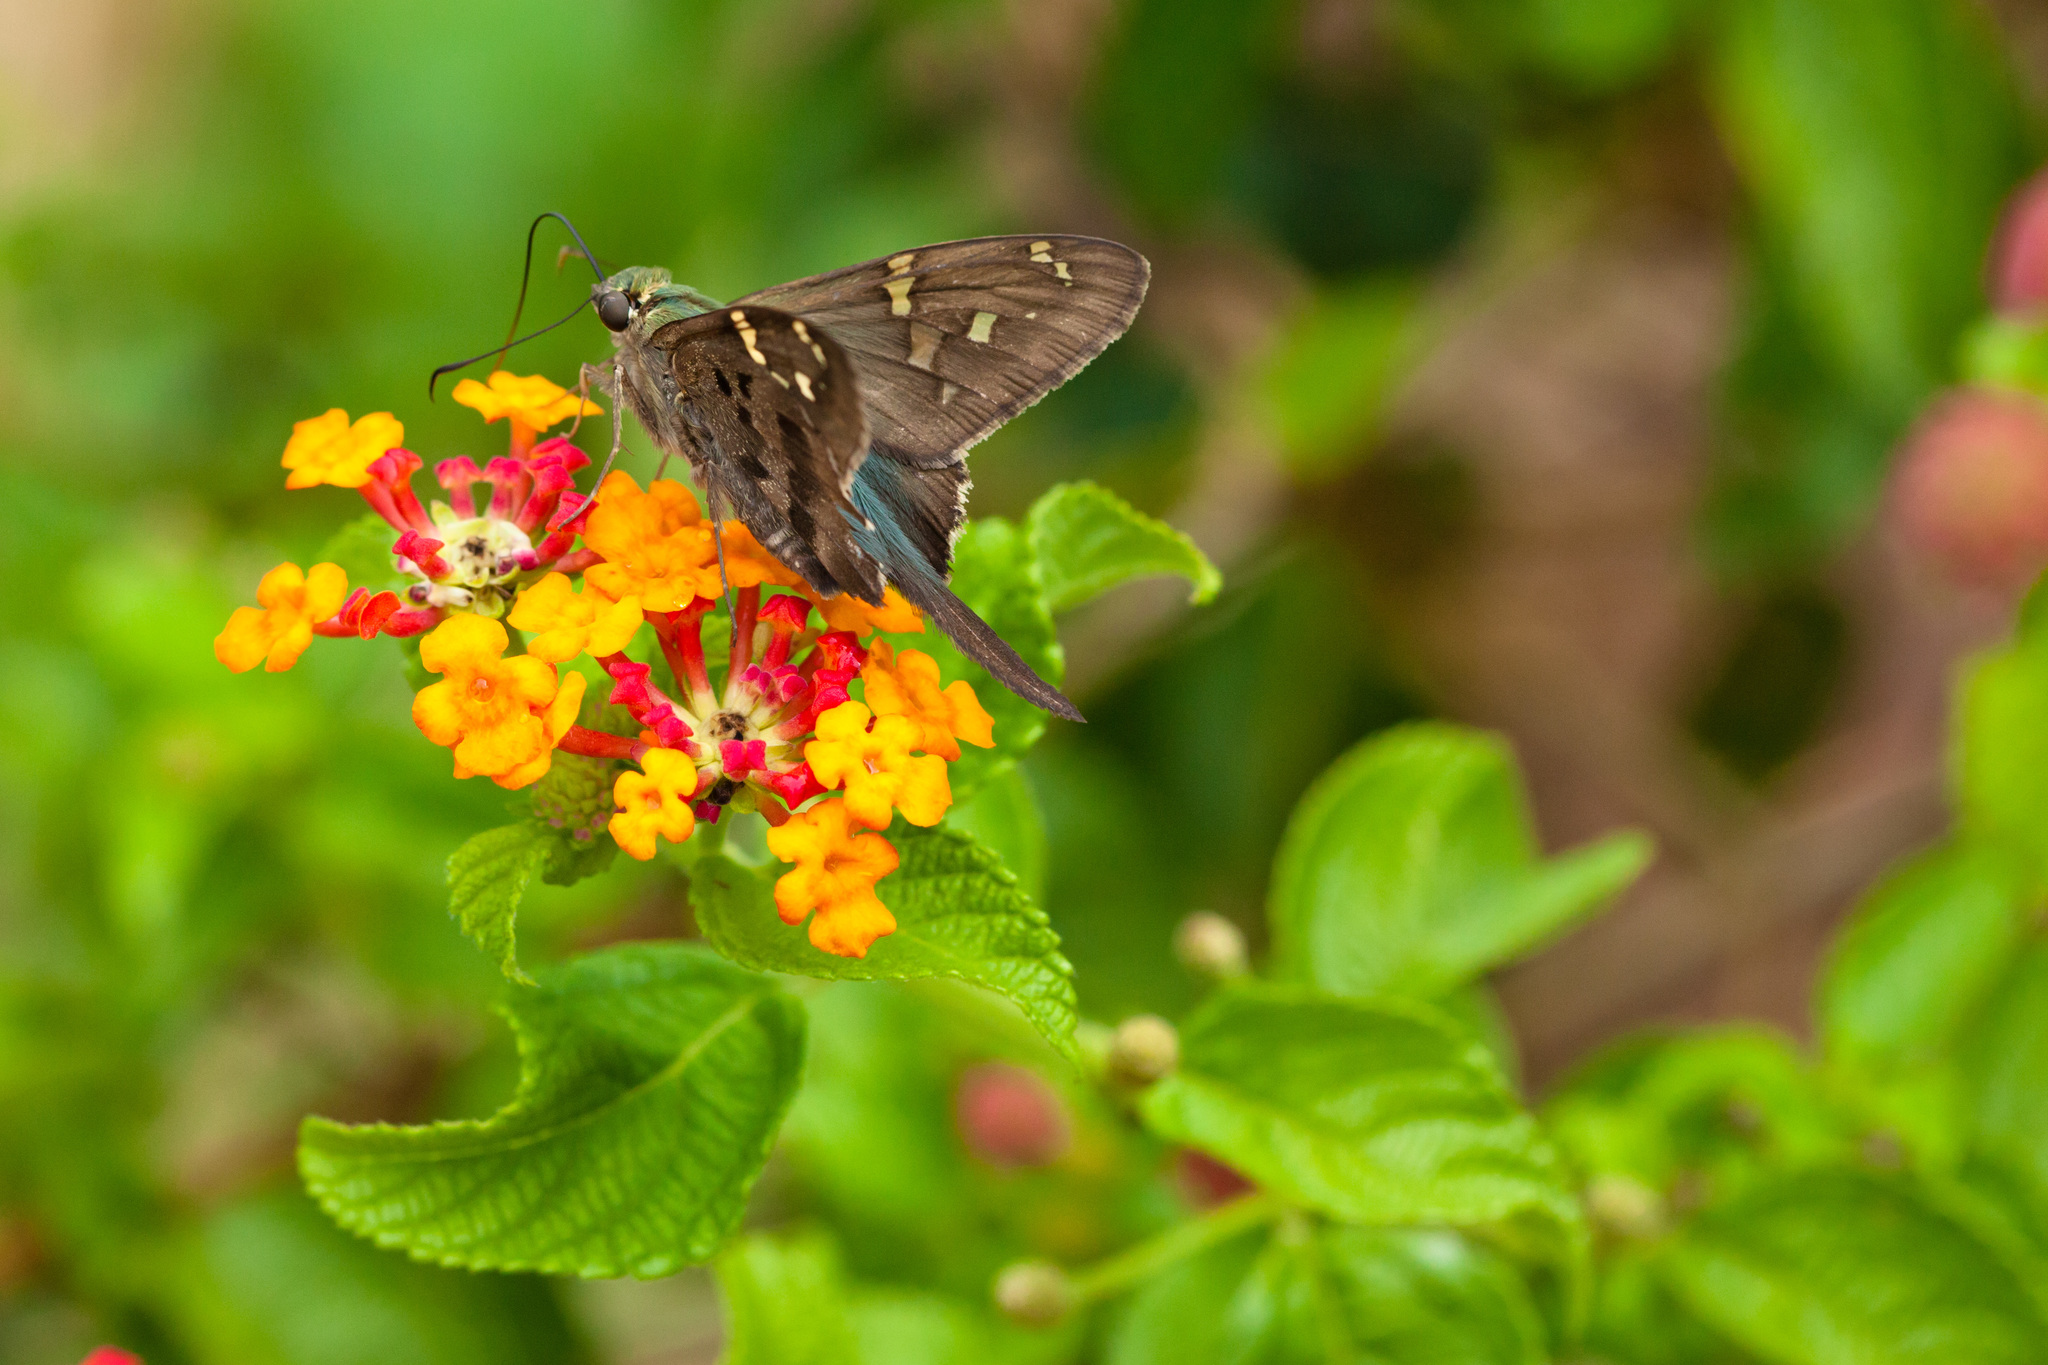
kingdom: Animalia
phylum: Arthropoda
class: Insecta
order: Lepidoptera
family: Hesperiidae
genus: Urbanus
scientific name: Urbanus proteus
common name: Long-tailed skipper
